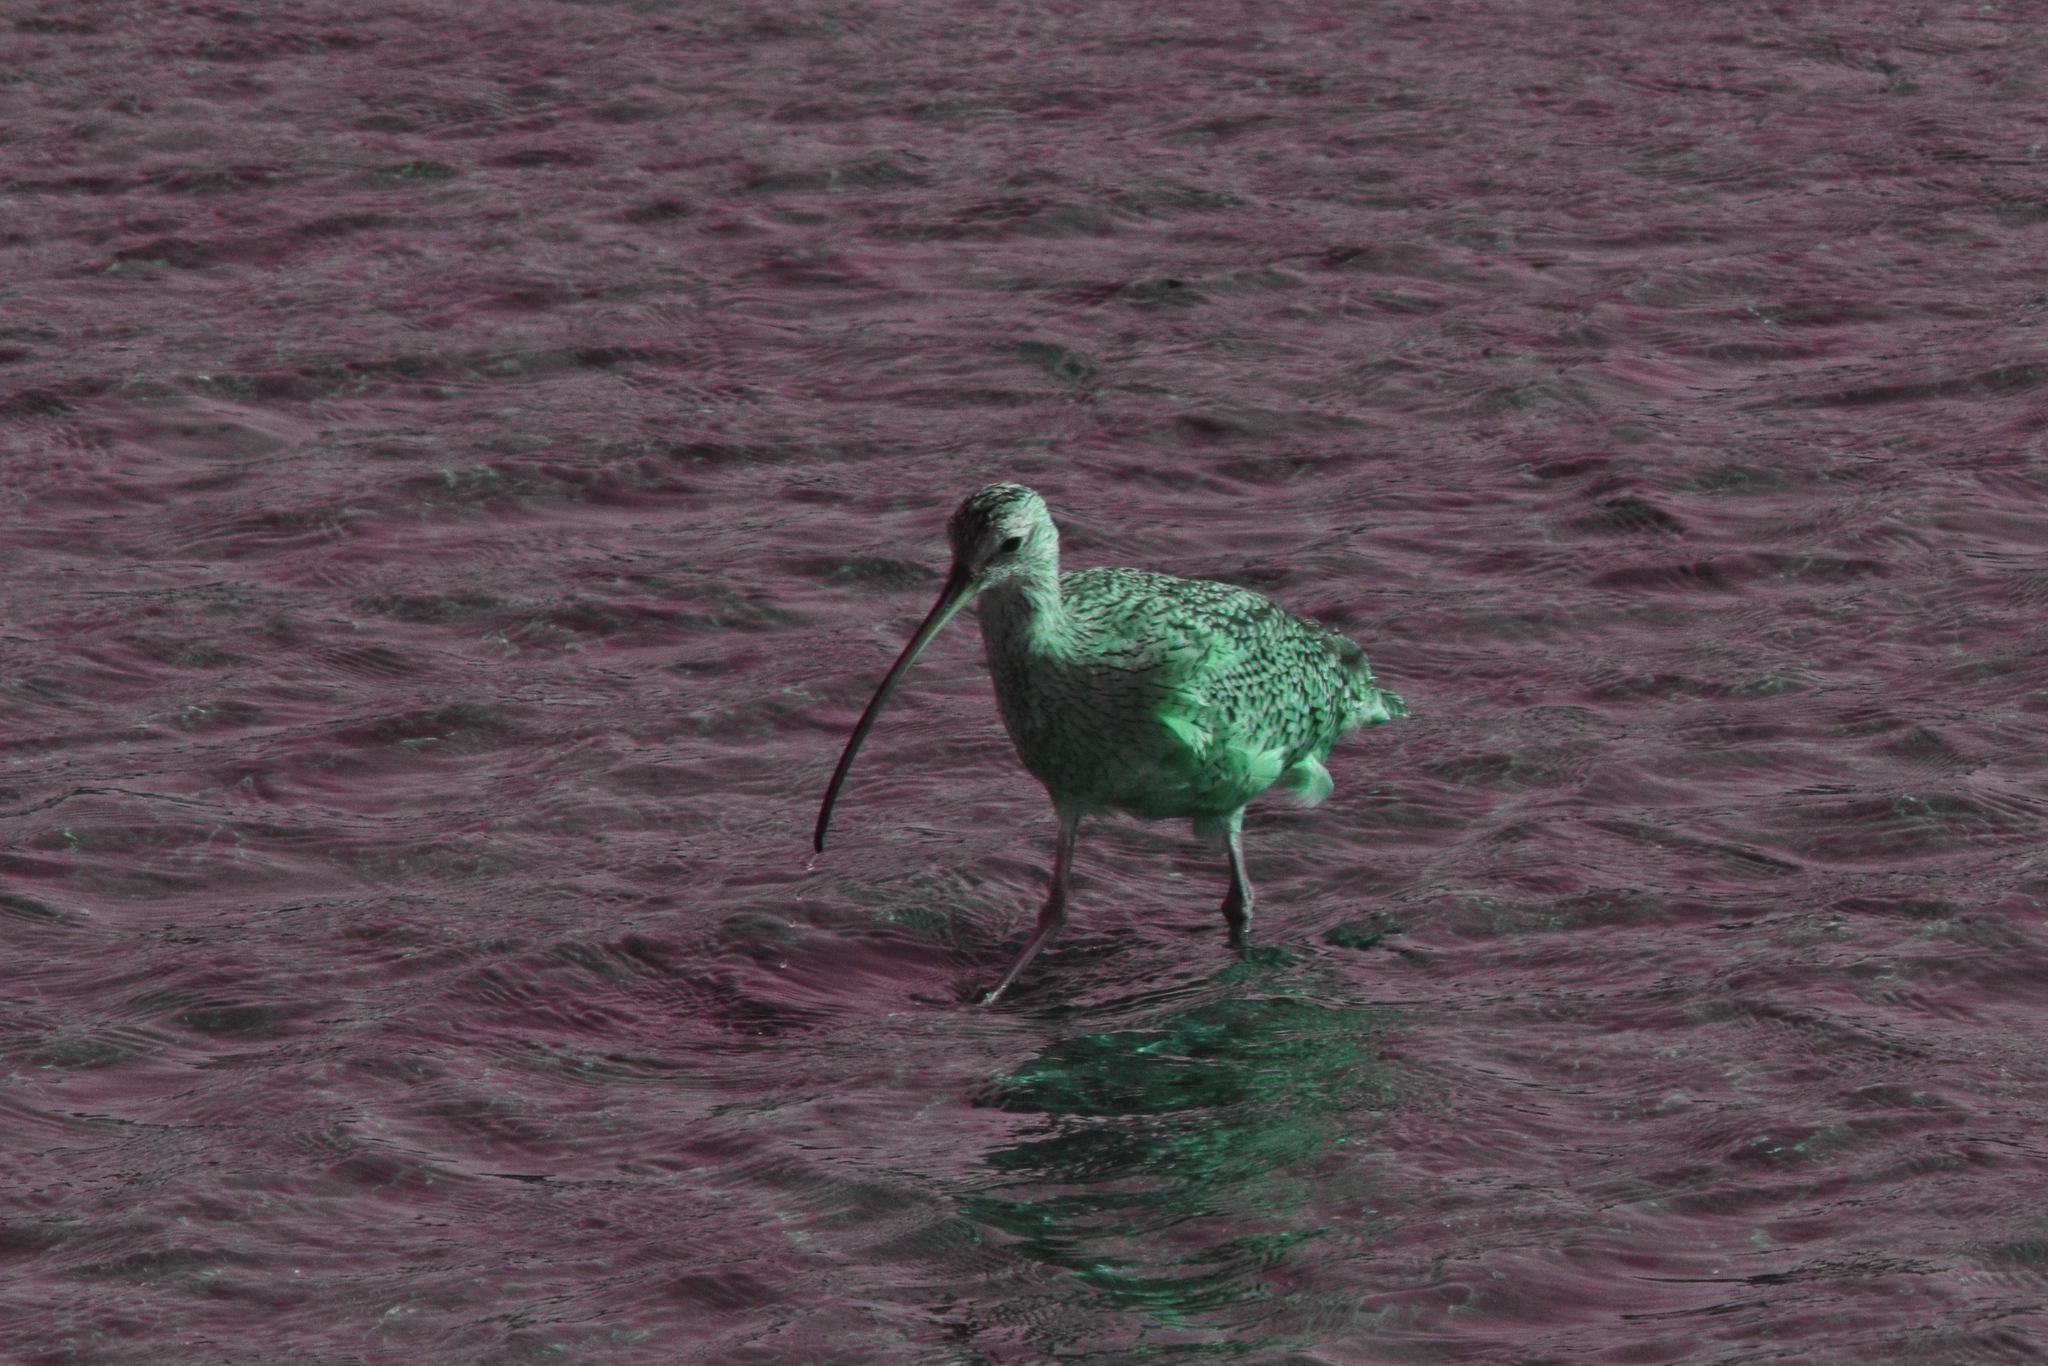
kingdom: Animalia
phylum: Chordata
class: Aves
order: Charadriiformes
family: Scolopacidae
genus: Numenius
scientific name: Numenius americanus
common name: Long-billed curlew
